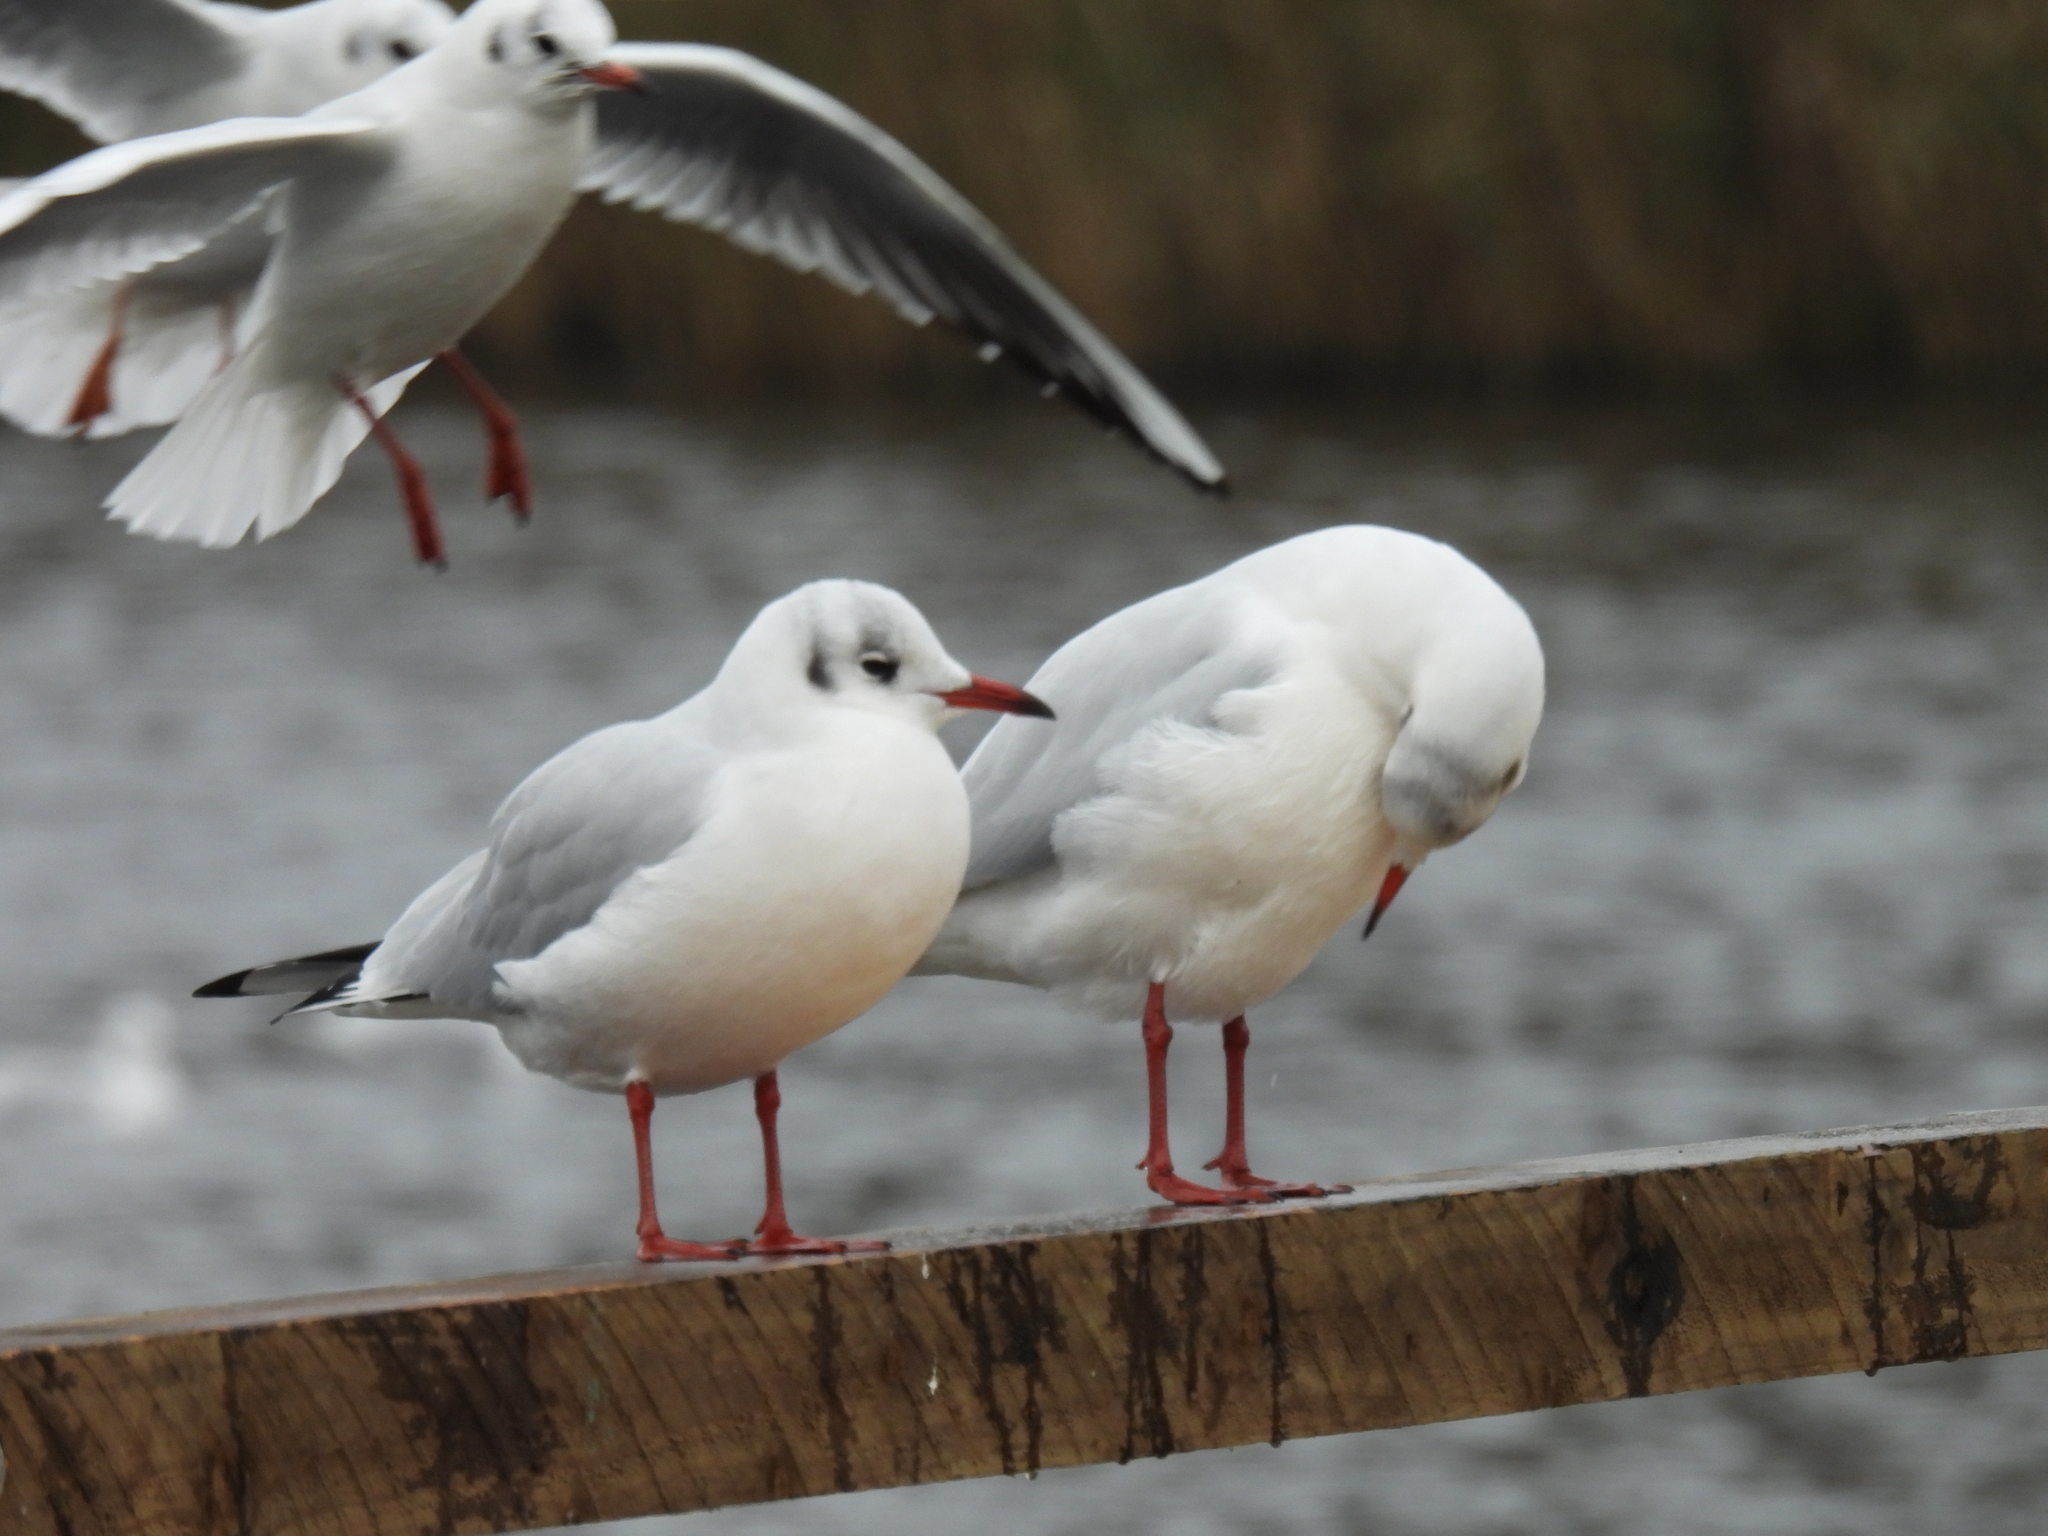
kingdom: Animalia
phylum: Chordata
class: Aves
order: Charadriiformes
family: Laridae
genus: Chroicocephalus
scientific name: Chroicocephalus ridibundus
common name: Black-headed gull
